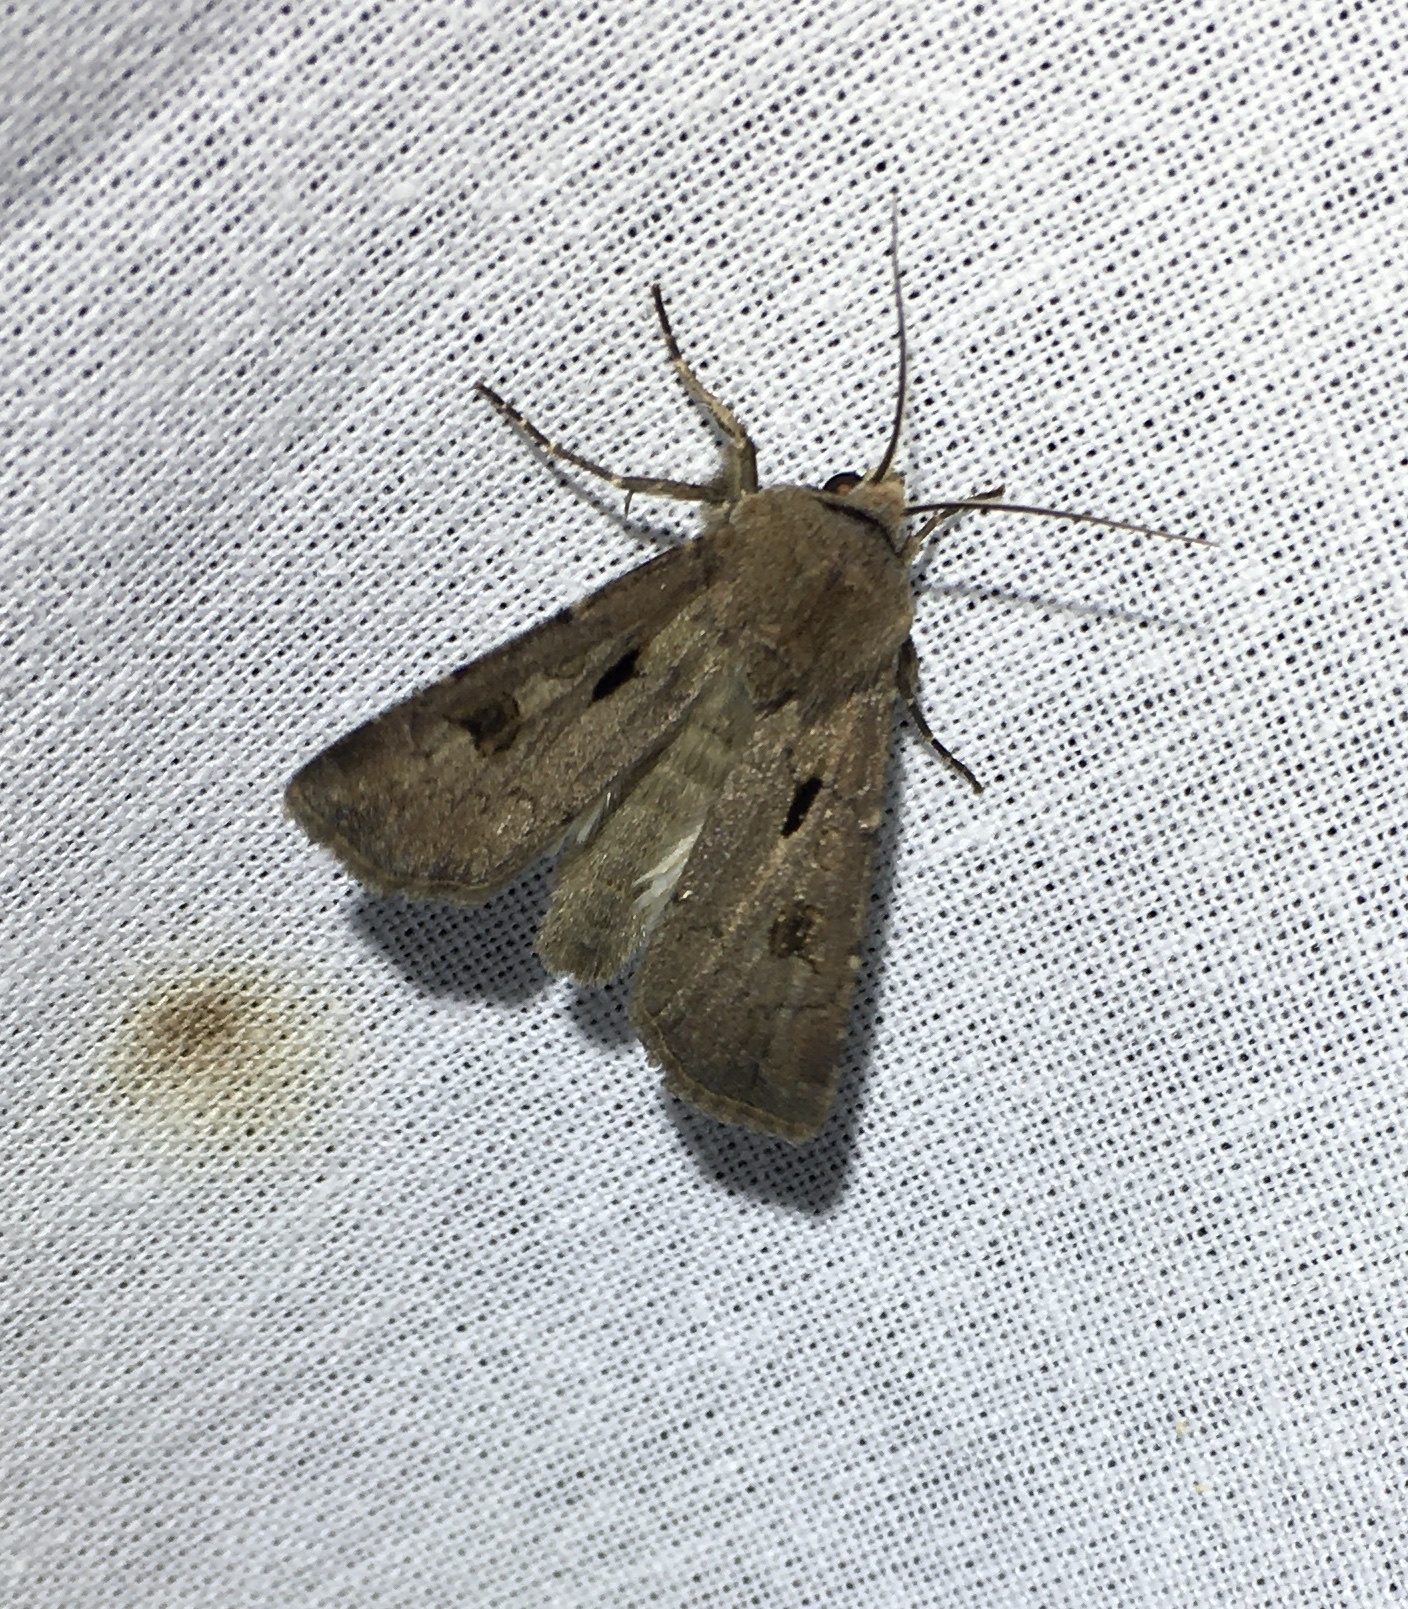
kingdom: Animalia
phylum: Arthropoda
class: Insecta
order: Lepidoptera
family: Noctuidae
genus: Agrotis
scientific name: Agrotis exclamationis
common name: Heart and dart
